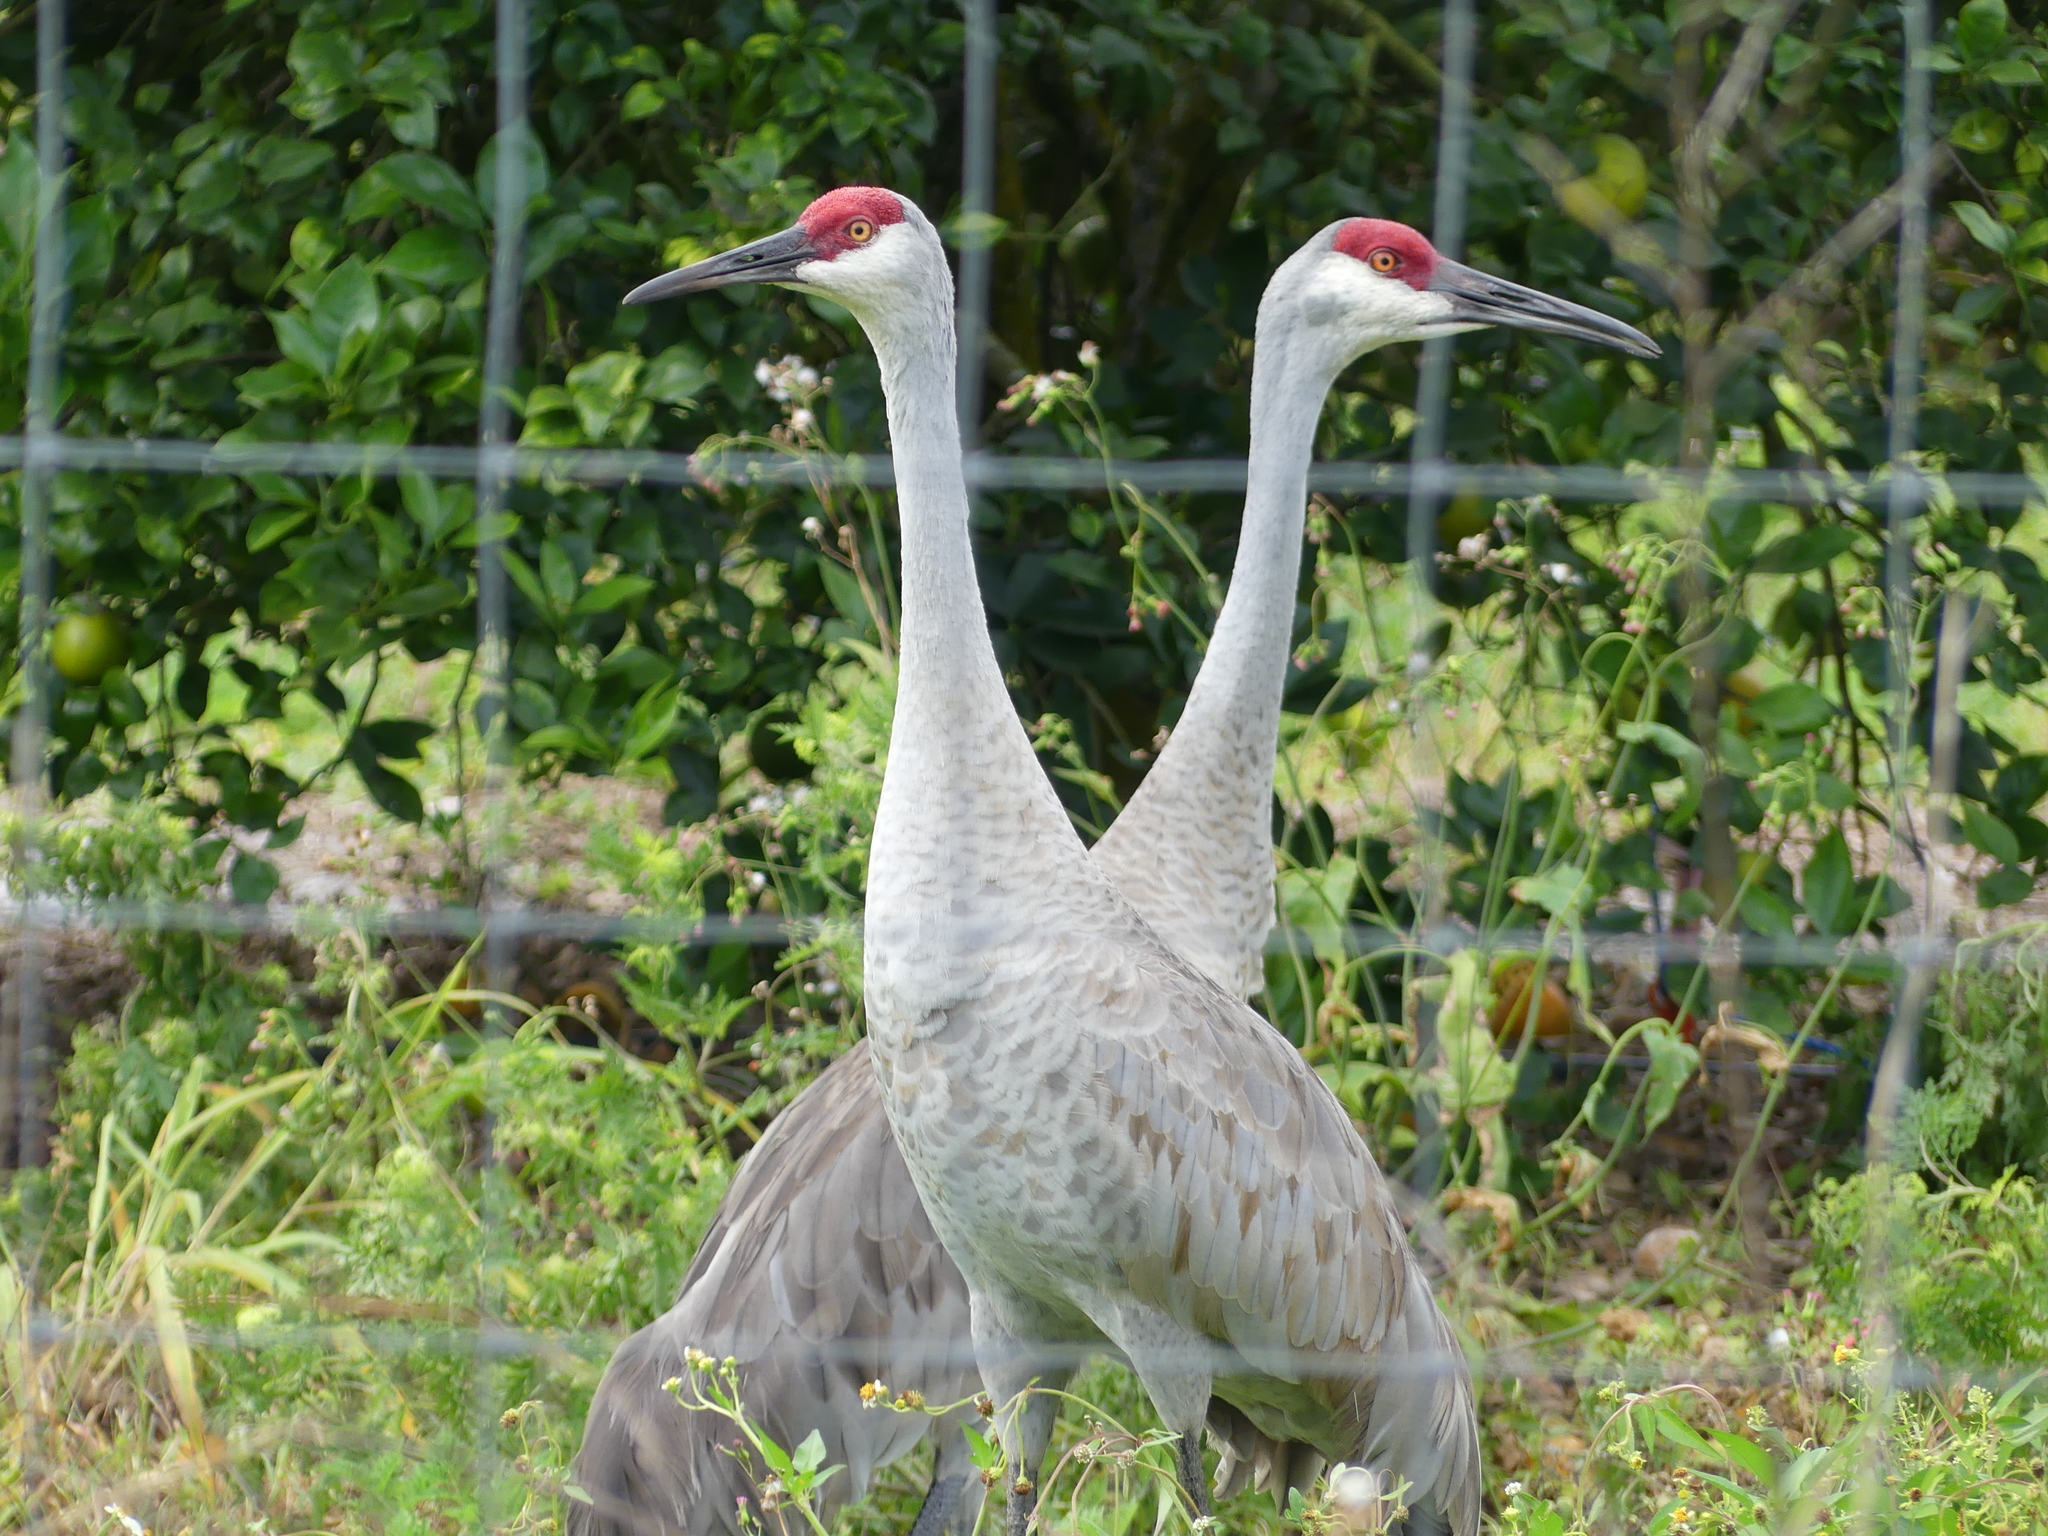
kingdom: Animalia
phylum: Chordata
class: Aves
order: Gruiformes
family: Gruidae
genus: Grus
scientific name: Grus canadensis
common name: Sandhill crane
